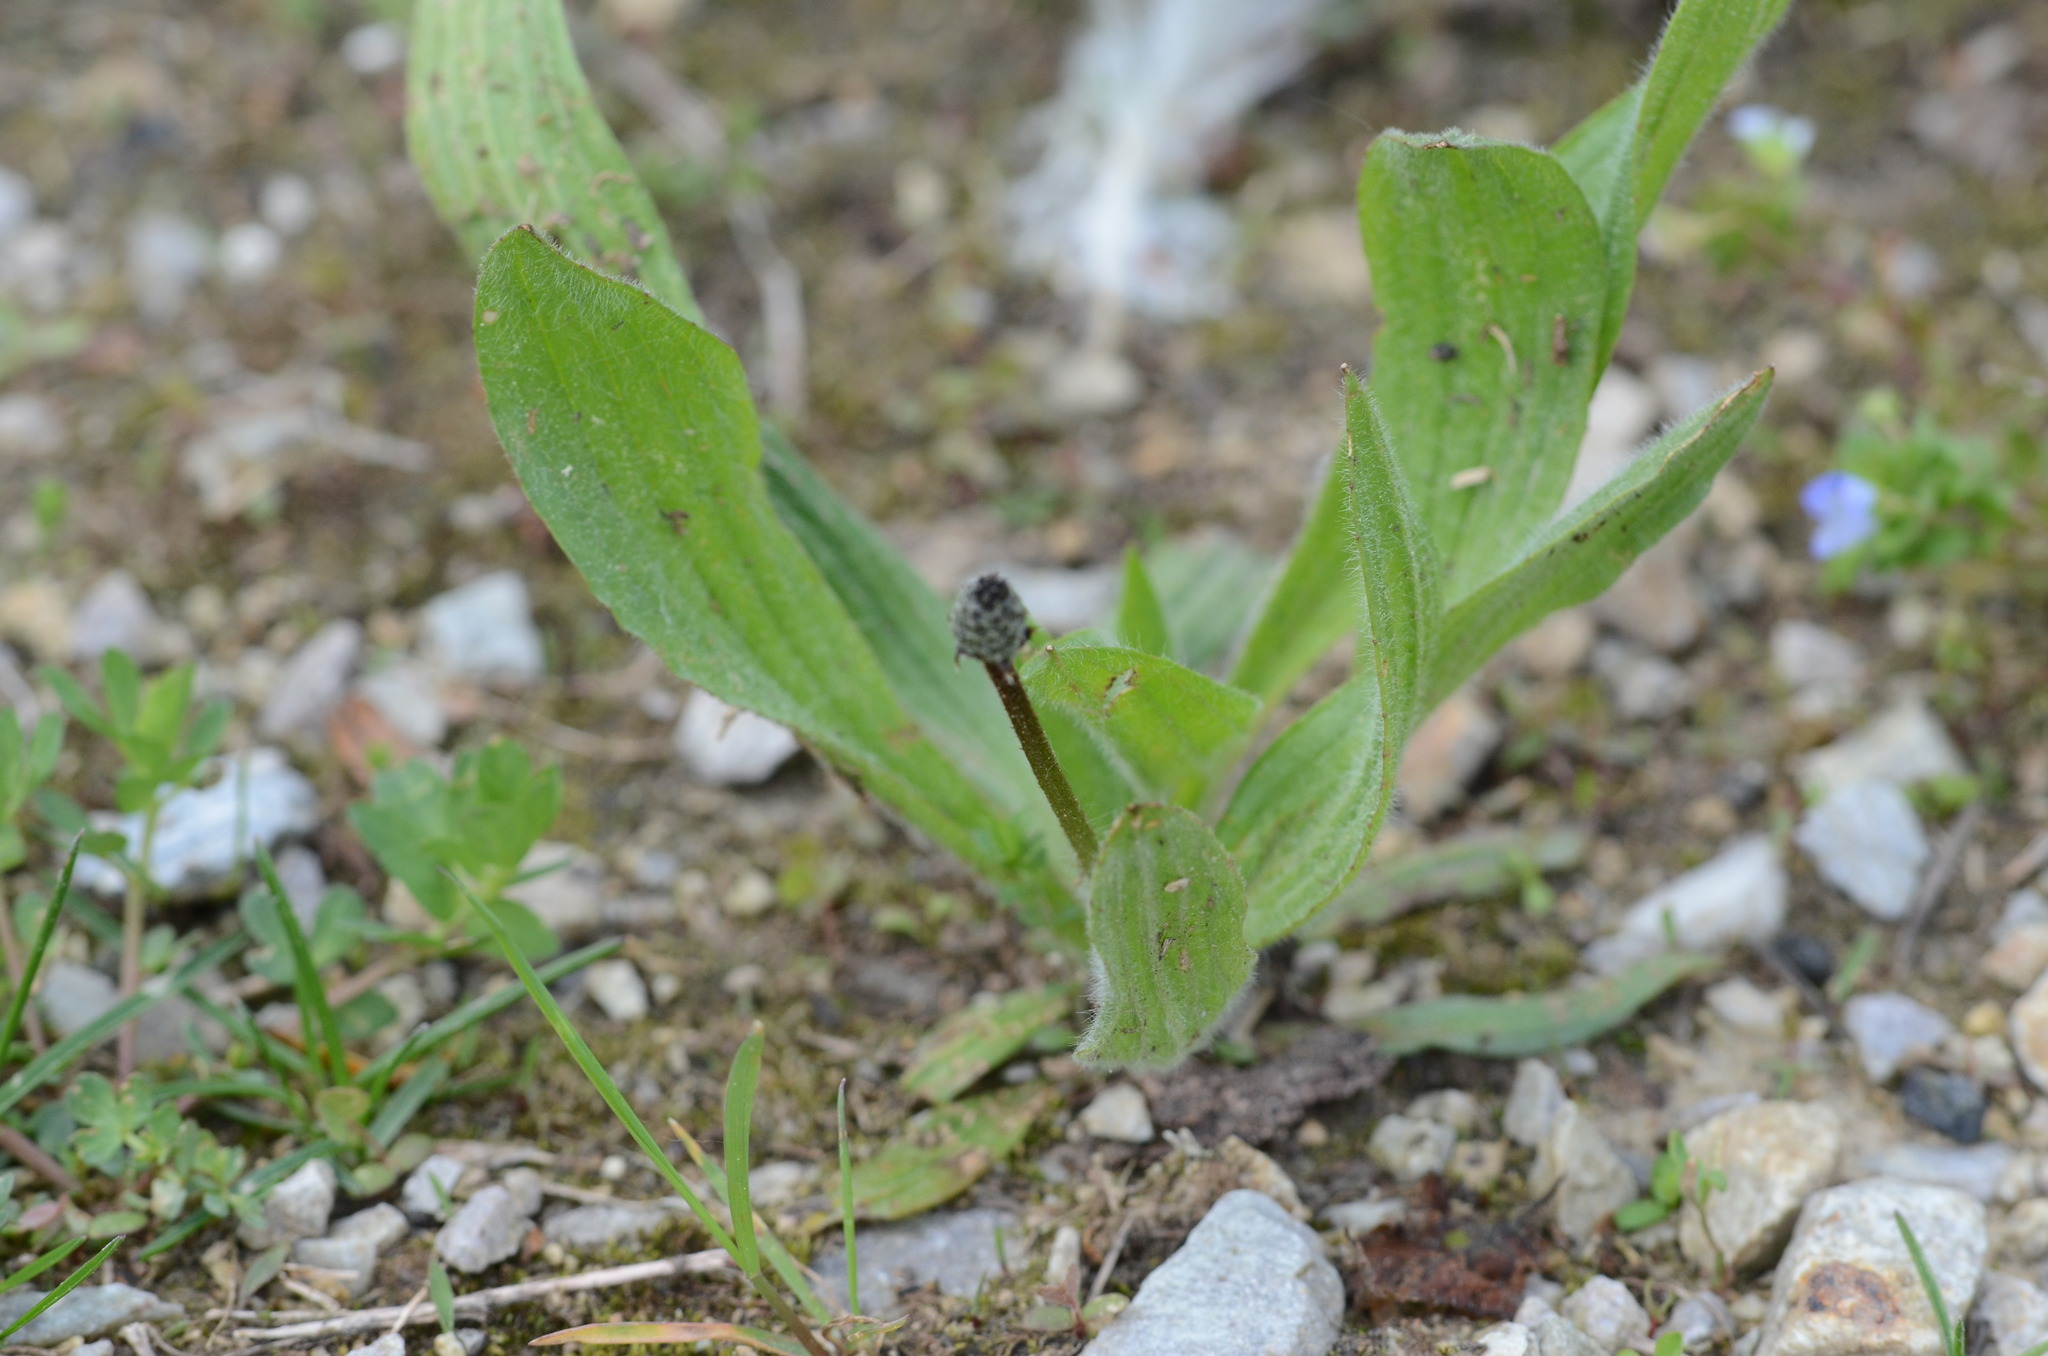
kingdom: Plantae
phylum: Tracheophyta
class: Magnoliopsida
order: Lamiales
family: Plantaginaceae
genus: Plantago
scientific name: Plantago lanceolata
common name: Ribwort plantain
